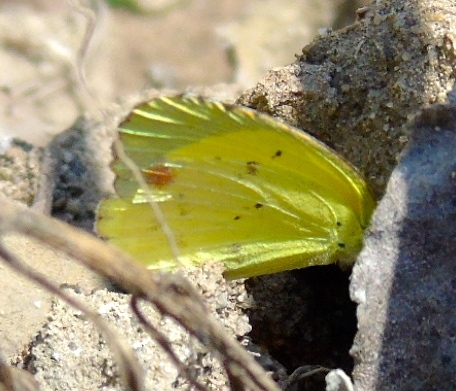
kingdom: Animalia
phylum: Arthropoda
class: Insecta
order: Lepidoptera
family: Pieridae
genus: Pyrisitia
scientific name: Pyrisitia lisa
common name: Little yellow
